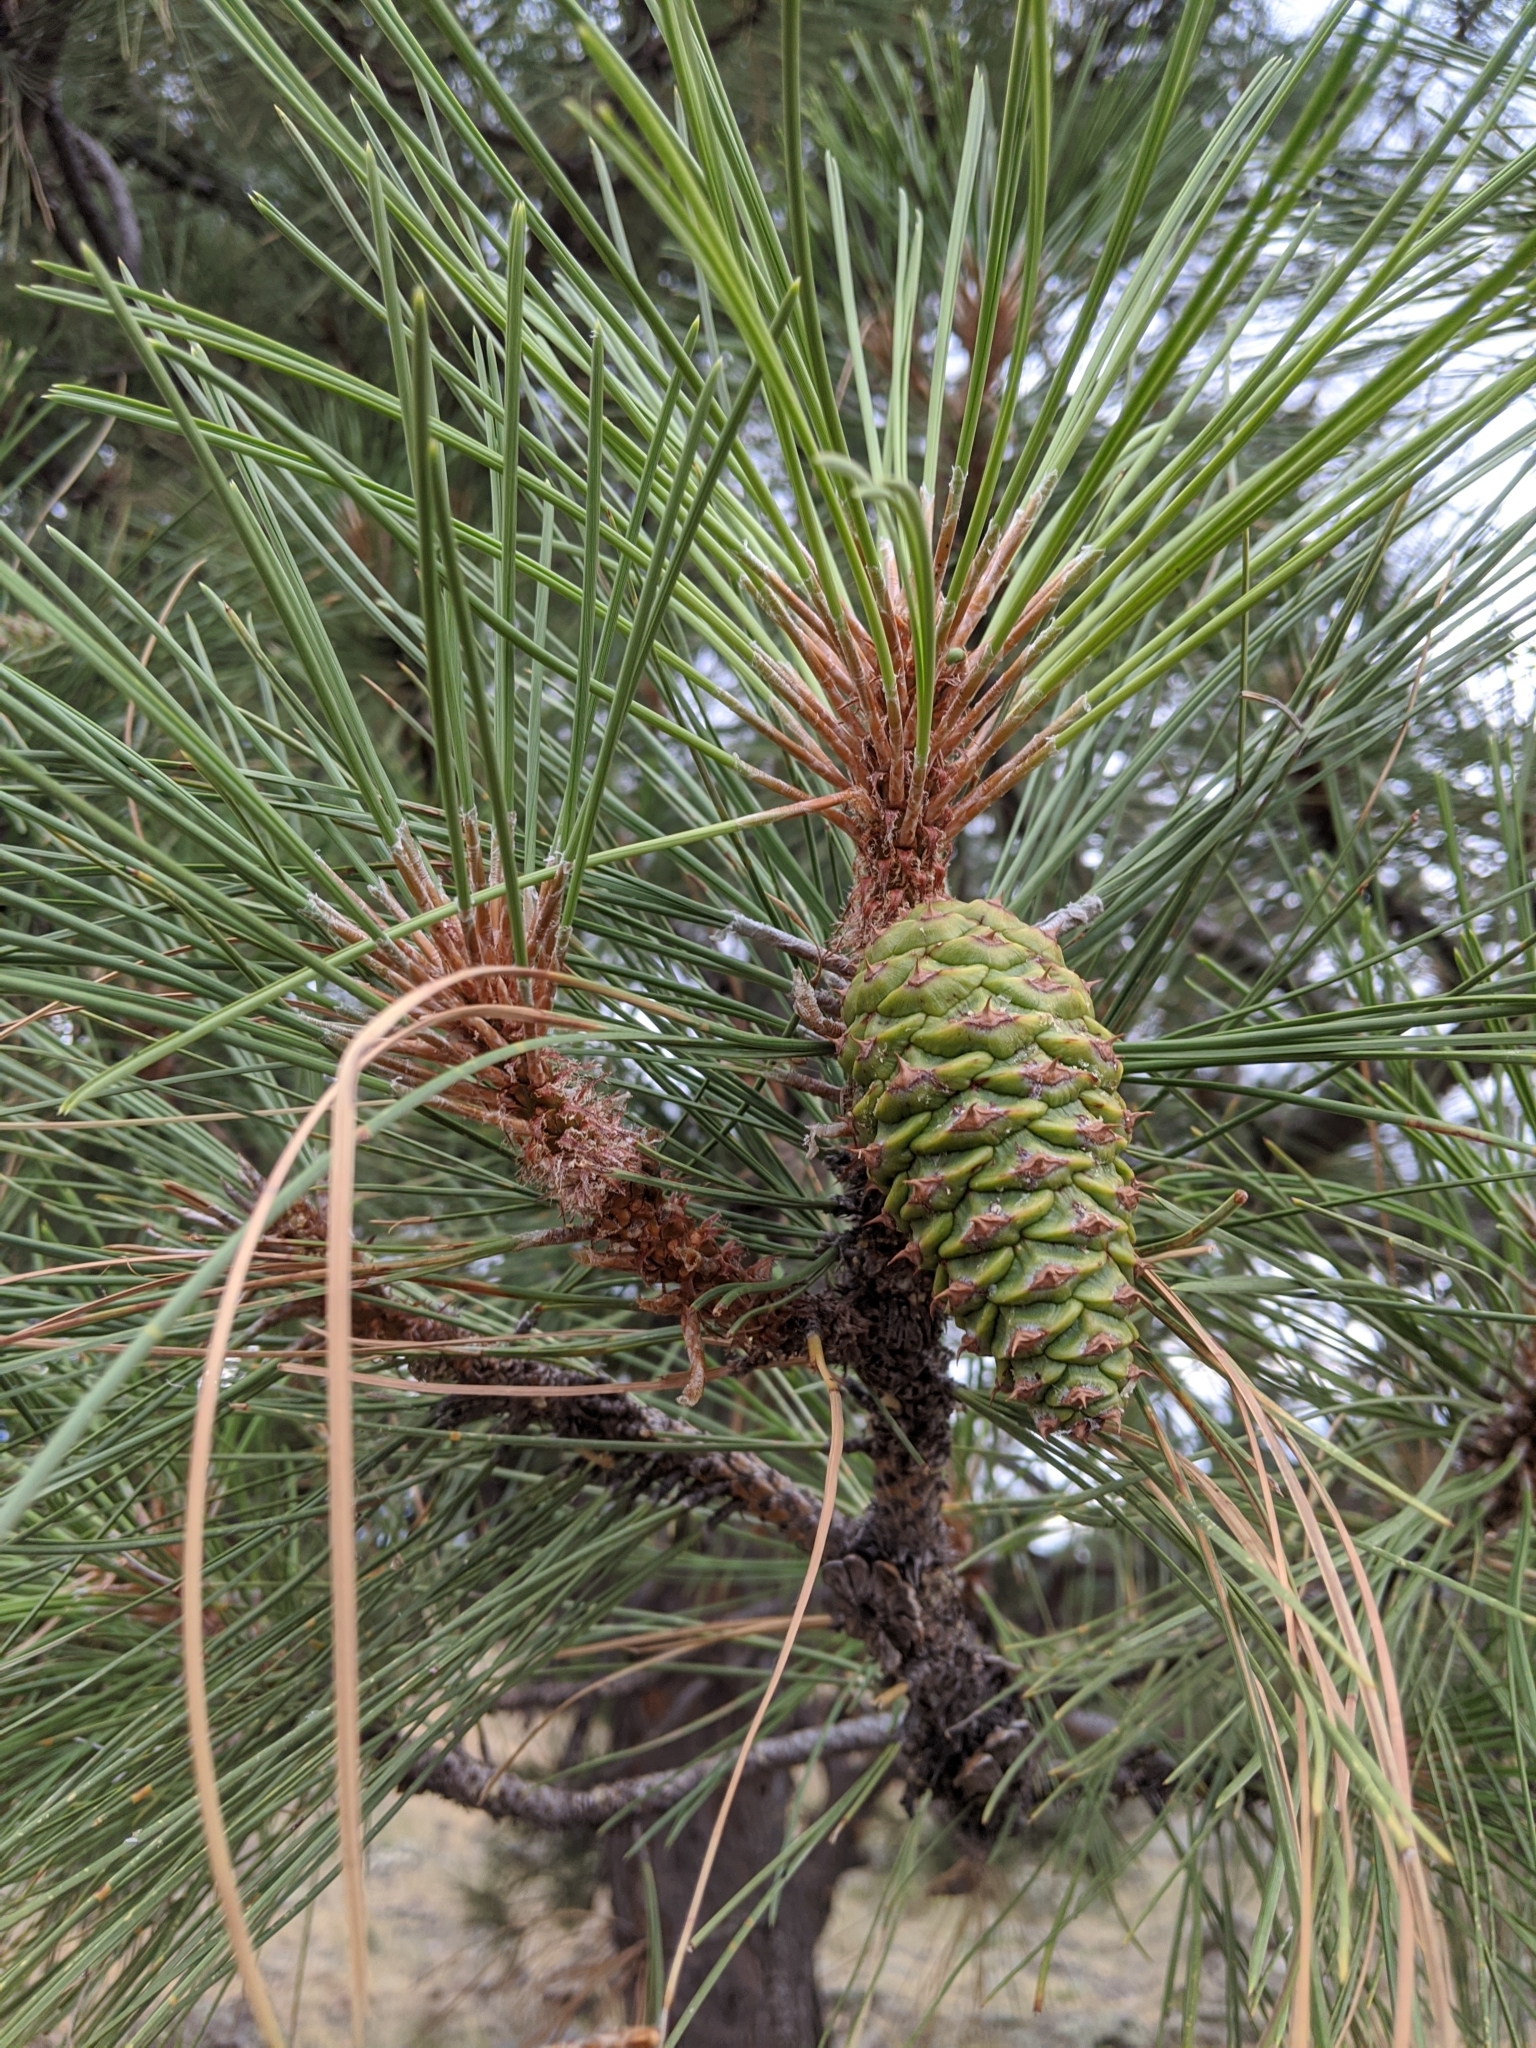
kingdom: Plantae
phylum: Tracheophyta
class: Pinopsida
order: Pinales
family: Pinaceae
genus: Pinus
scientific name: Pinus ponderosa
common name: Western yellow-pine
